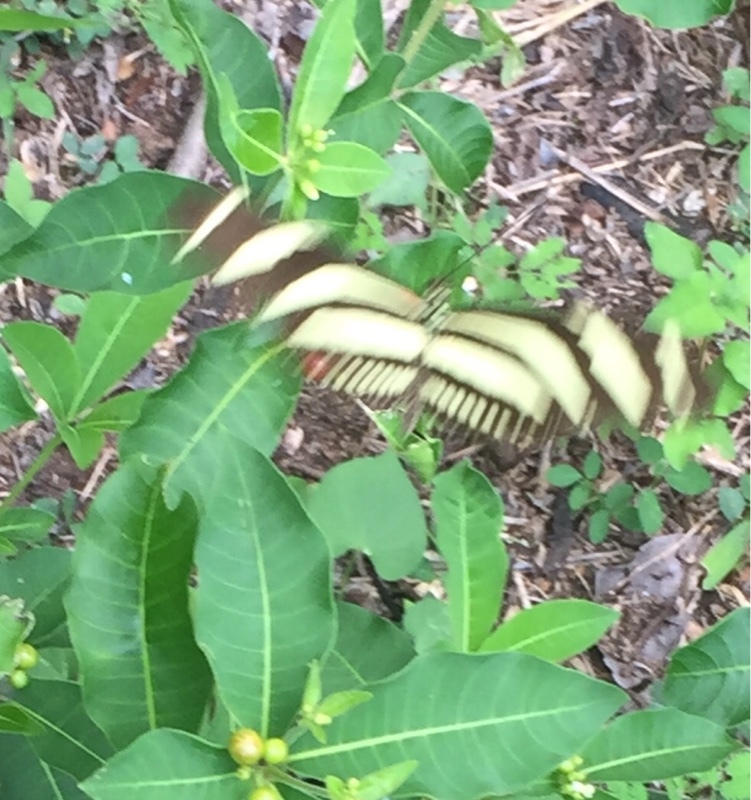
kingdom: Animalia
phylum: Arthropoda
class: Insecta
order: Lepidoptera
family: Nymphalidae
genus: Heliconius
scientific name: Heliconius charithonia
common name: Zebra long wing
